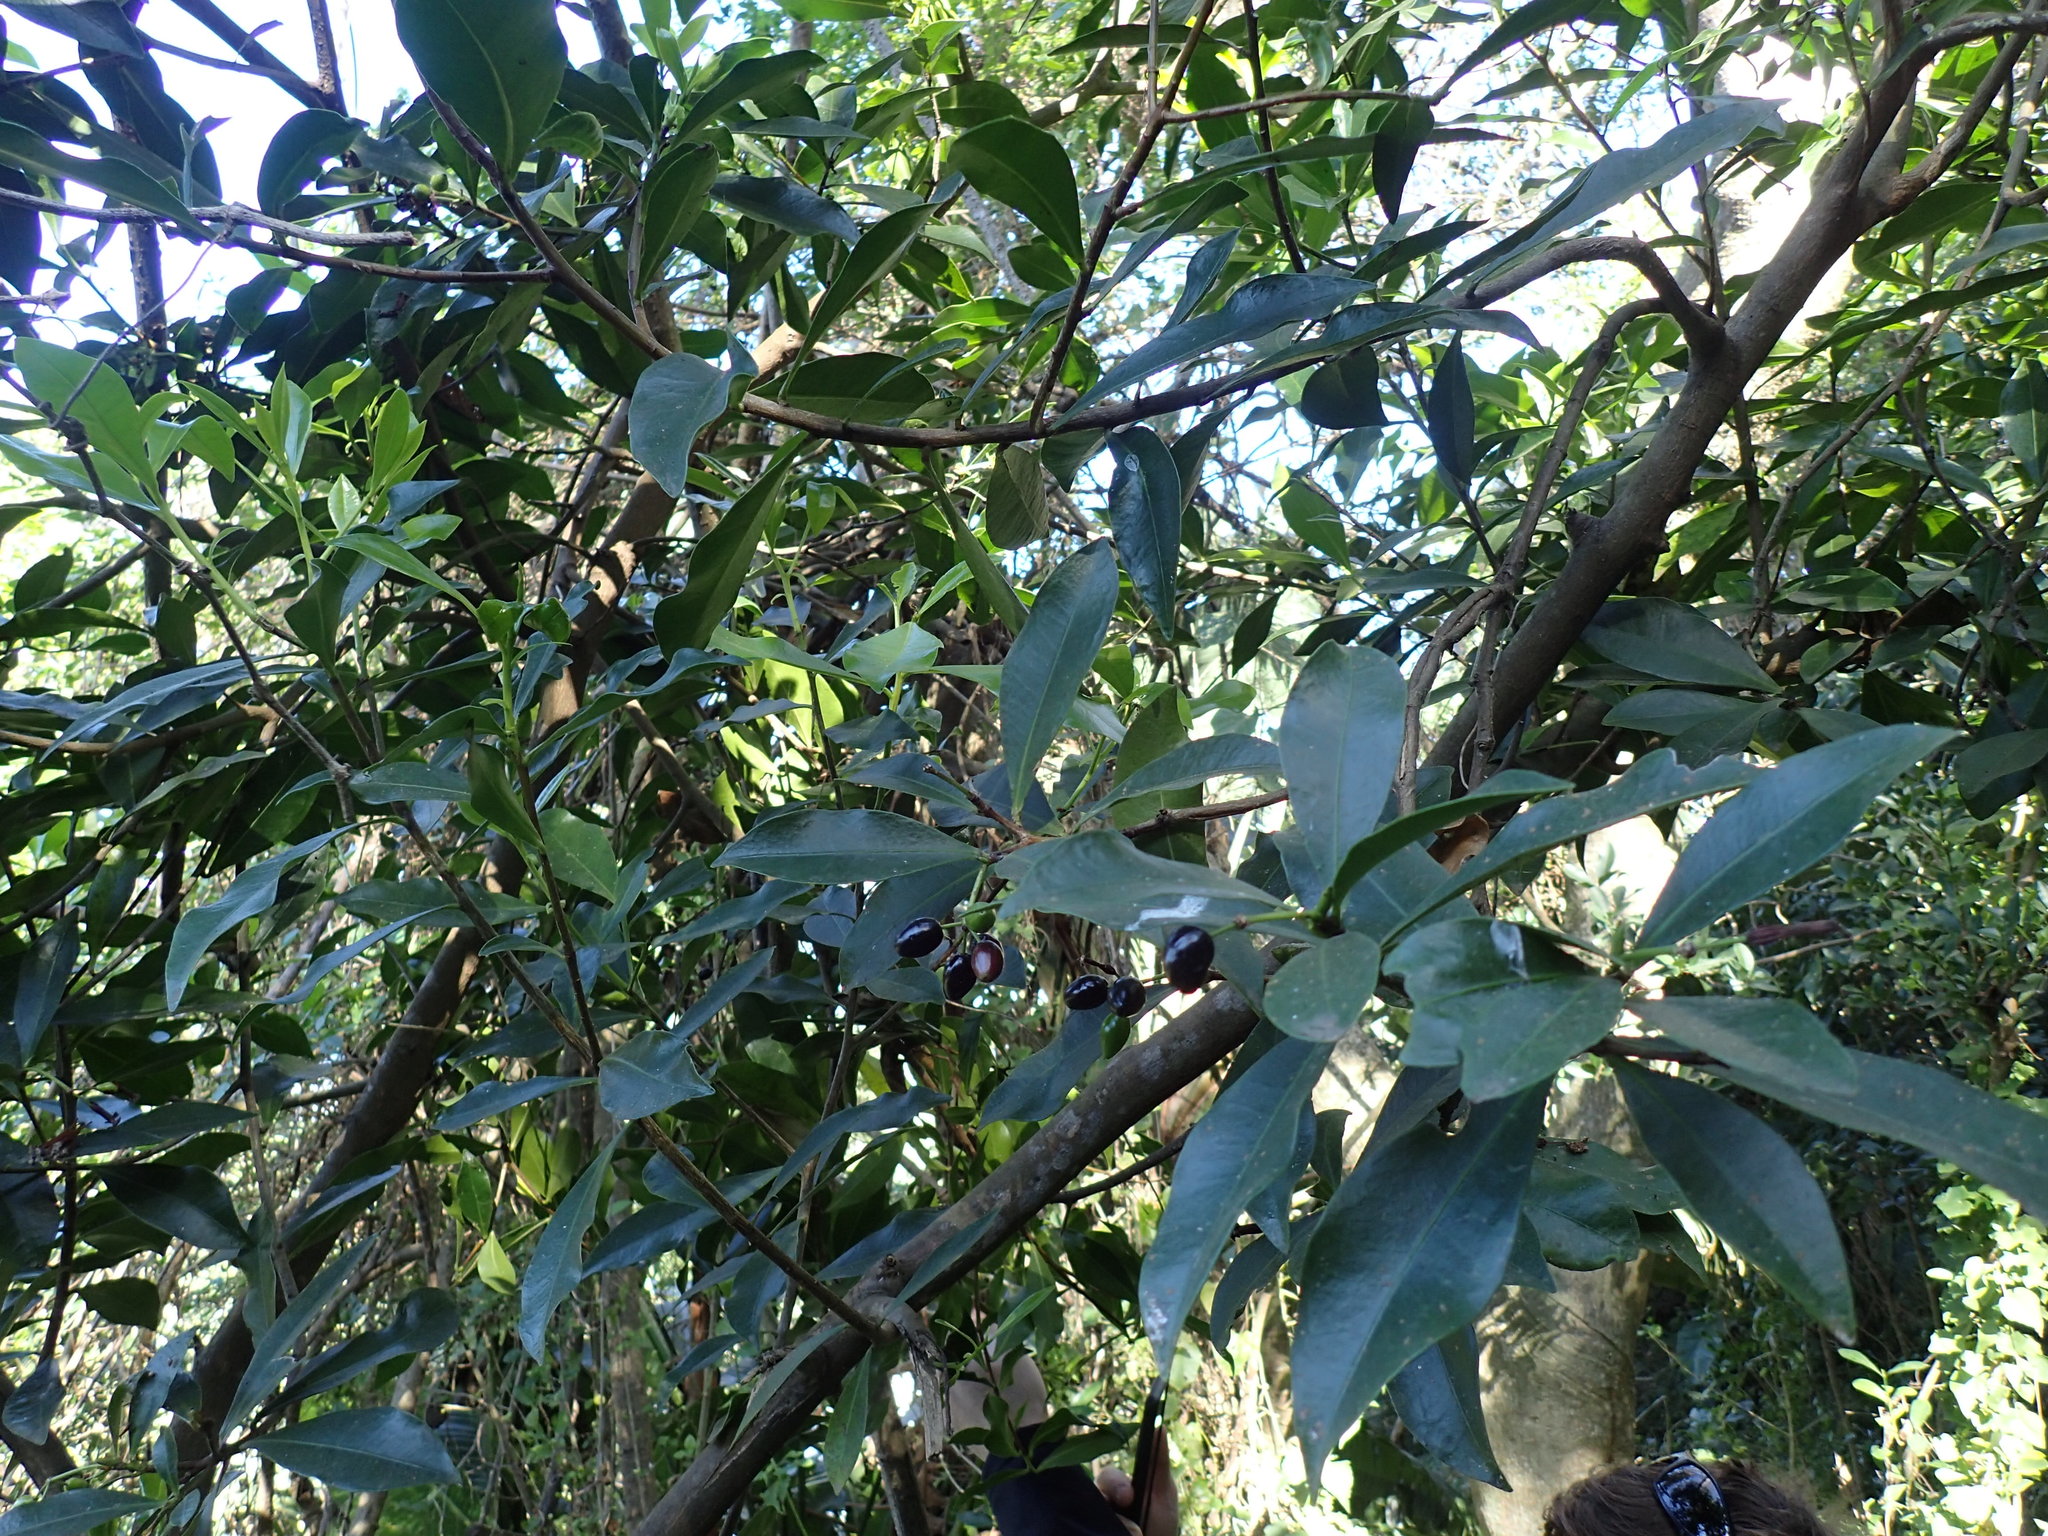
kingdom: Plantae
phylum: Tracheophyta
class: Magnoliopsida
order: Malvales
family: Thymelaeaceae
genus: Peddiea
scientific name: Peddiea africana
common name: Poison olive
